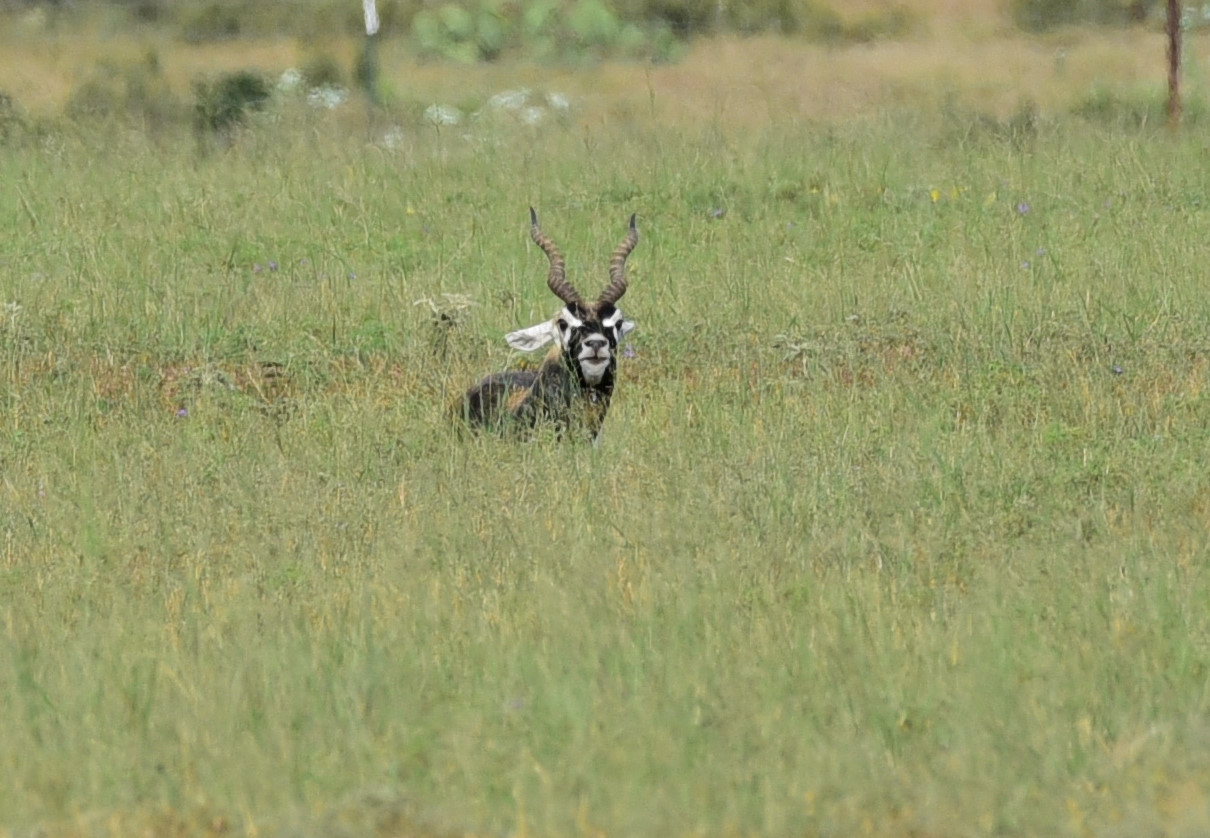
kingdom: Animalia
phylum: Chordata
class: Mammalia
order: Artiodactyla
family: Bovidae
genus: Antilope
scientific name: Antilope cervicapra
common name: Blackbuck
